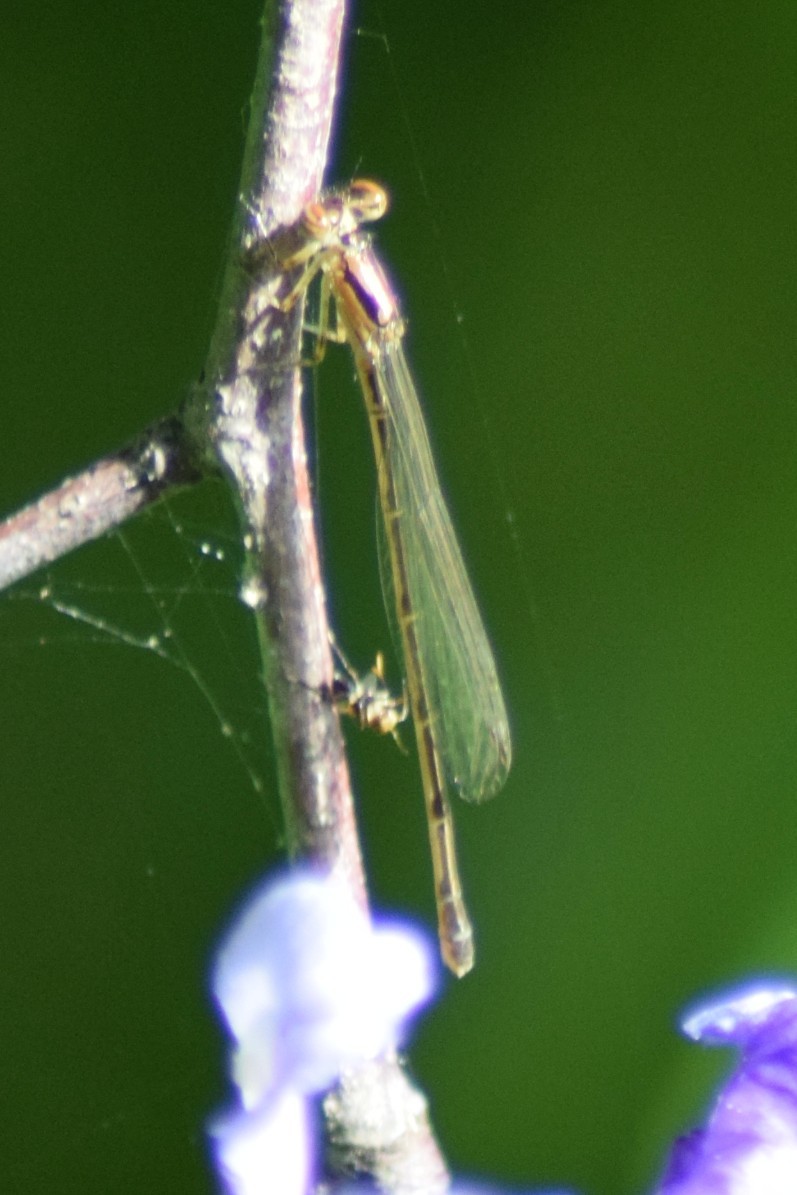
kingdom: Animalia
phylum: Arthropoda
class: Insecta
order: Odonata
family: Coenagrionidae
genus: Ischnura
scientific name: Ischnura posita
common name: Fragile forktail
